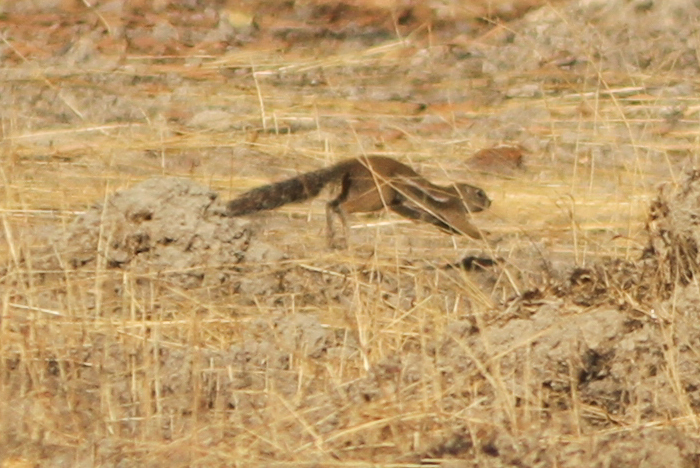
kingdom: Animalia
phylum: Chordata
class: Mammalia
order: Rodentia
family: Sciuridae
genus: Xerus
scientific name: Xerus erythropus
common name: Striped ground squirrel
